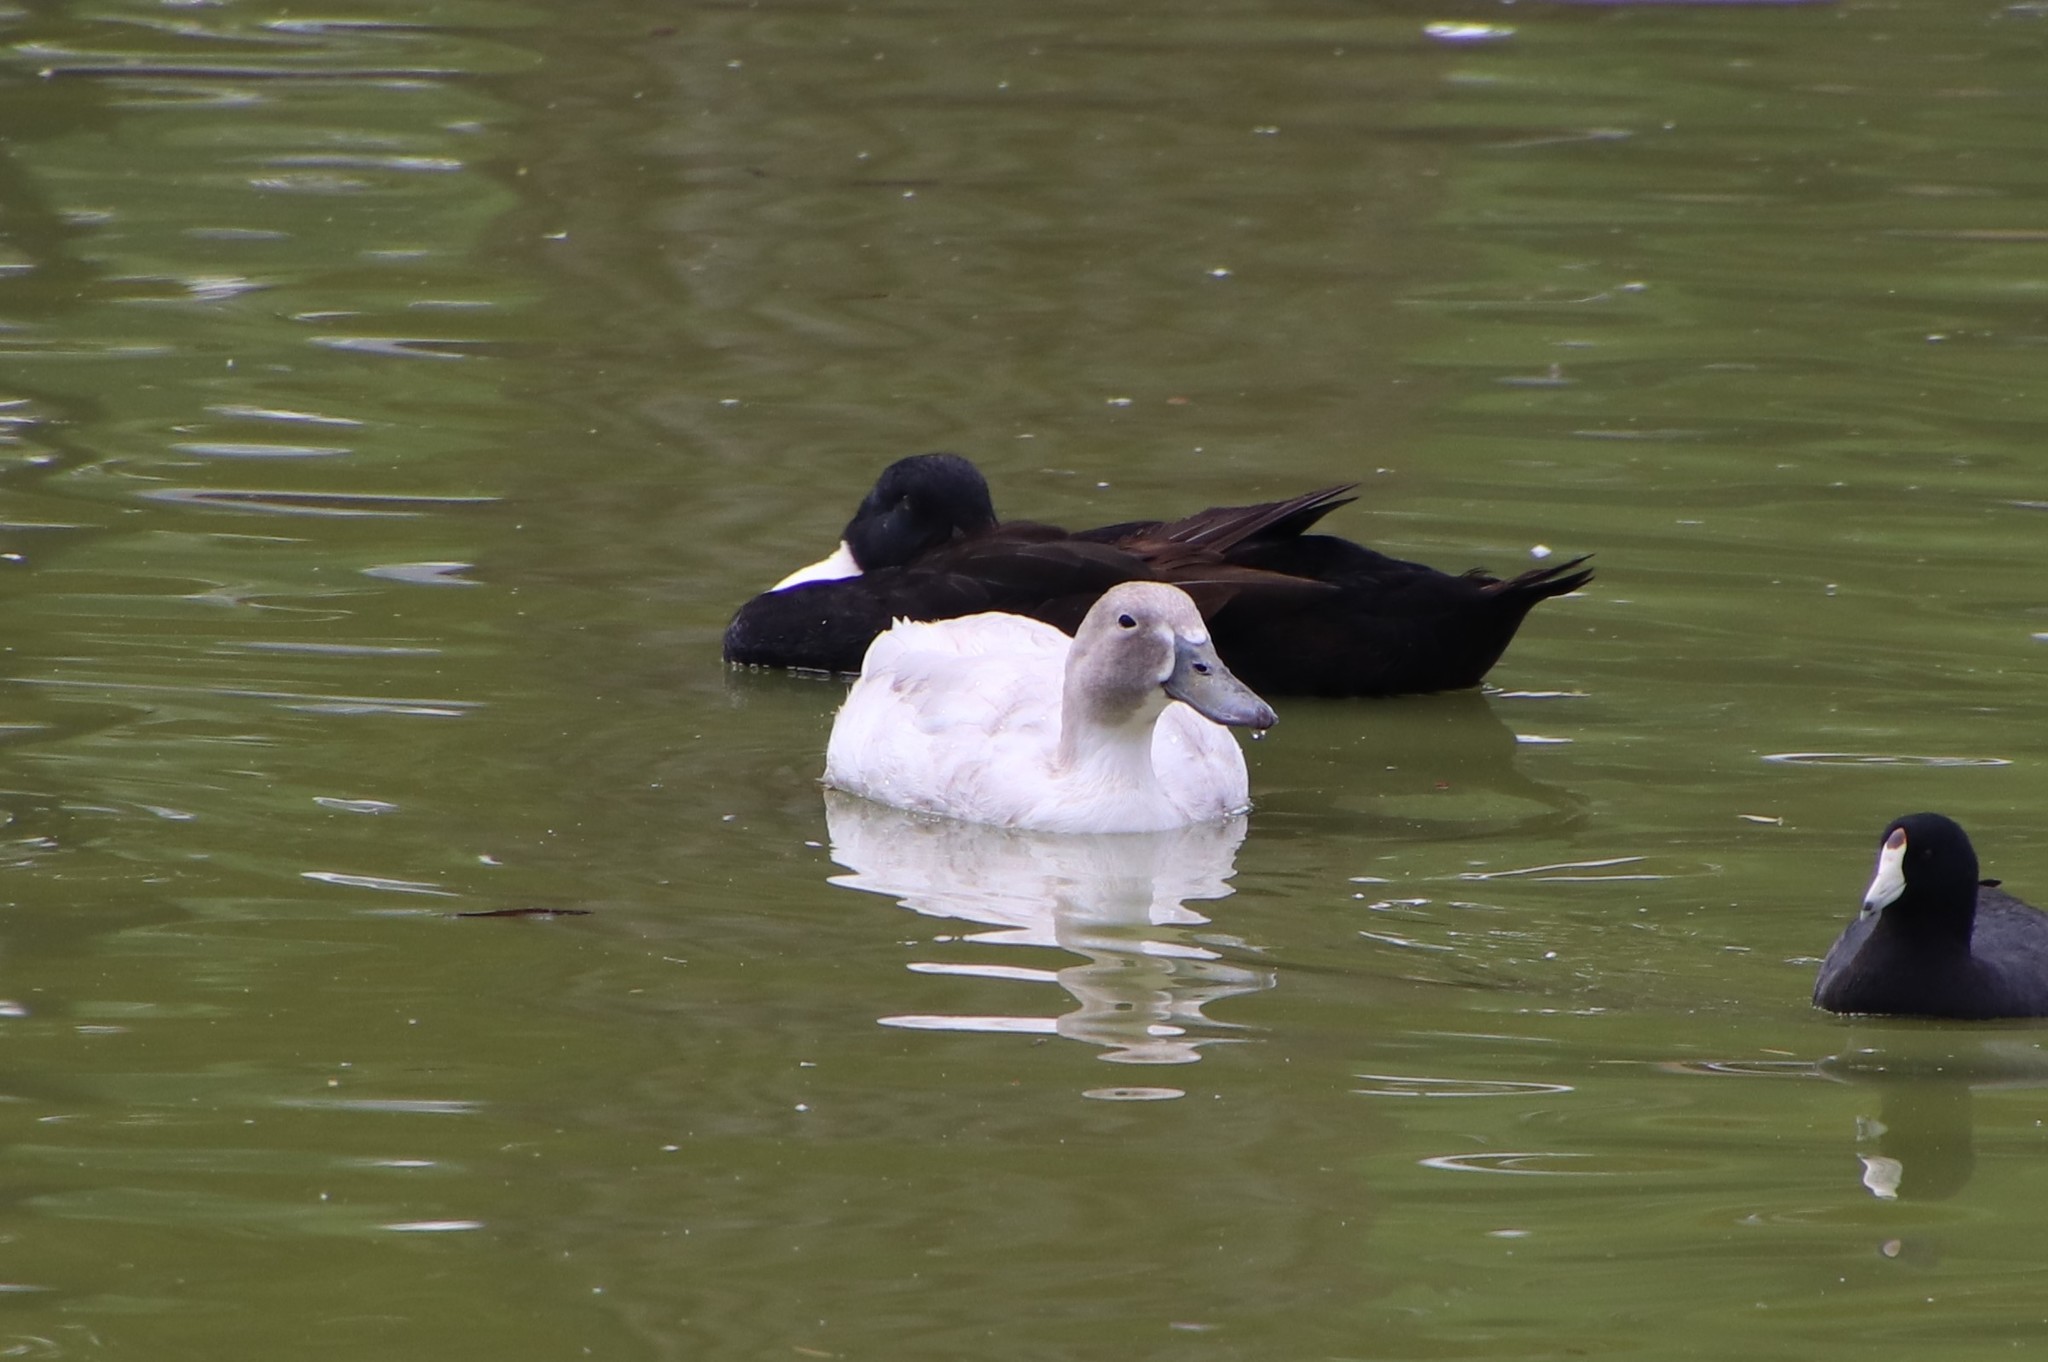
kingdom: Animalia
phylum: Chordata
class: Aves
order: Anseriformes
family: Anatidae
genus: Anas
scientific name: Anas platyrhynchos
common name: Mallard
